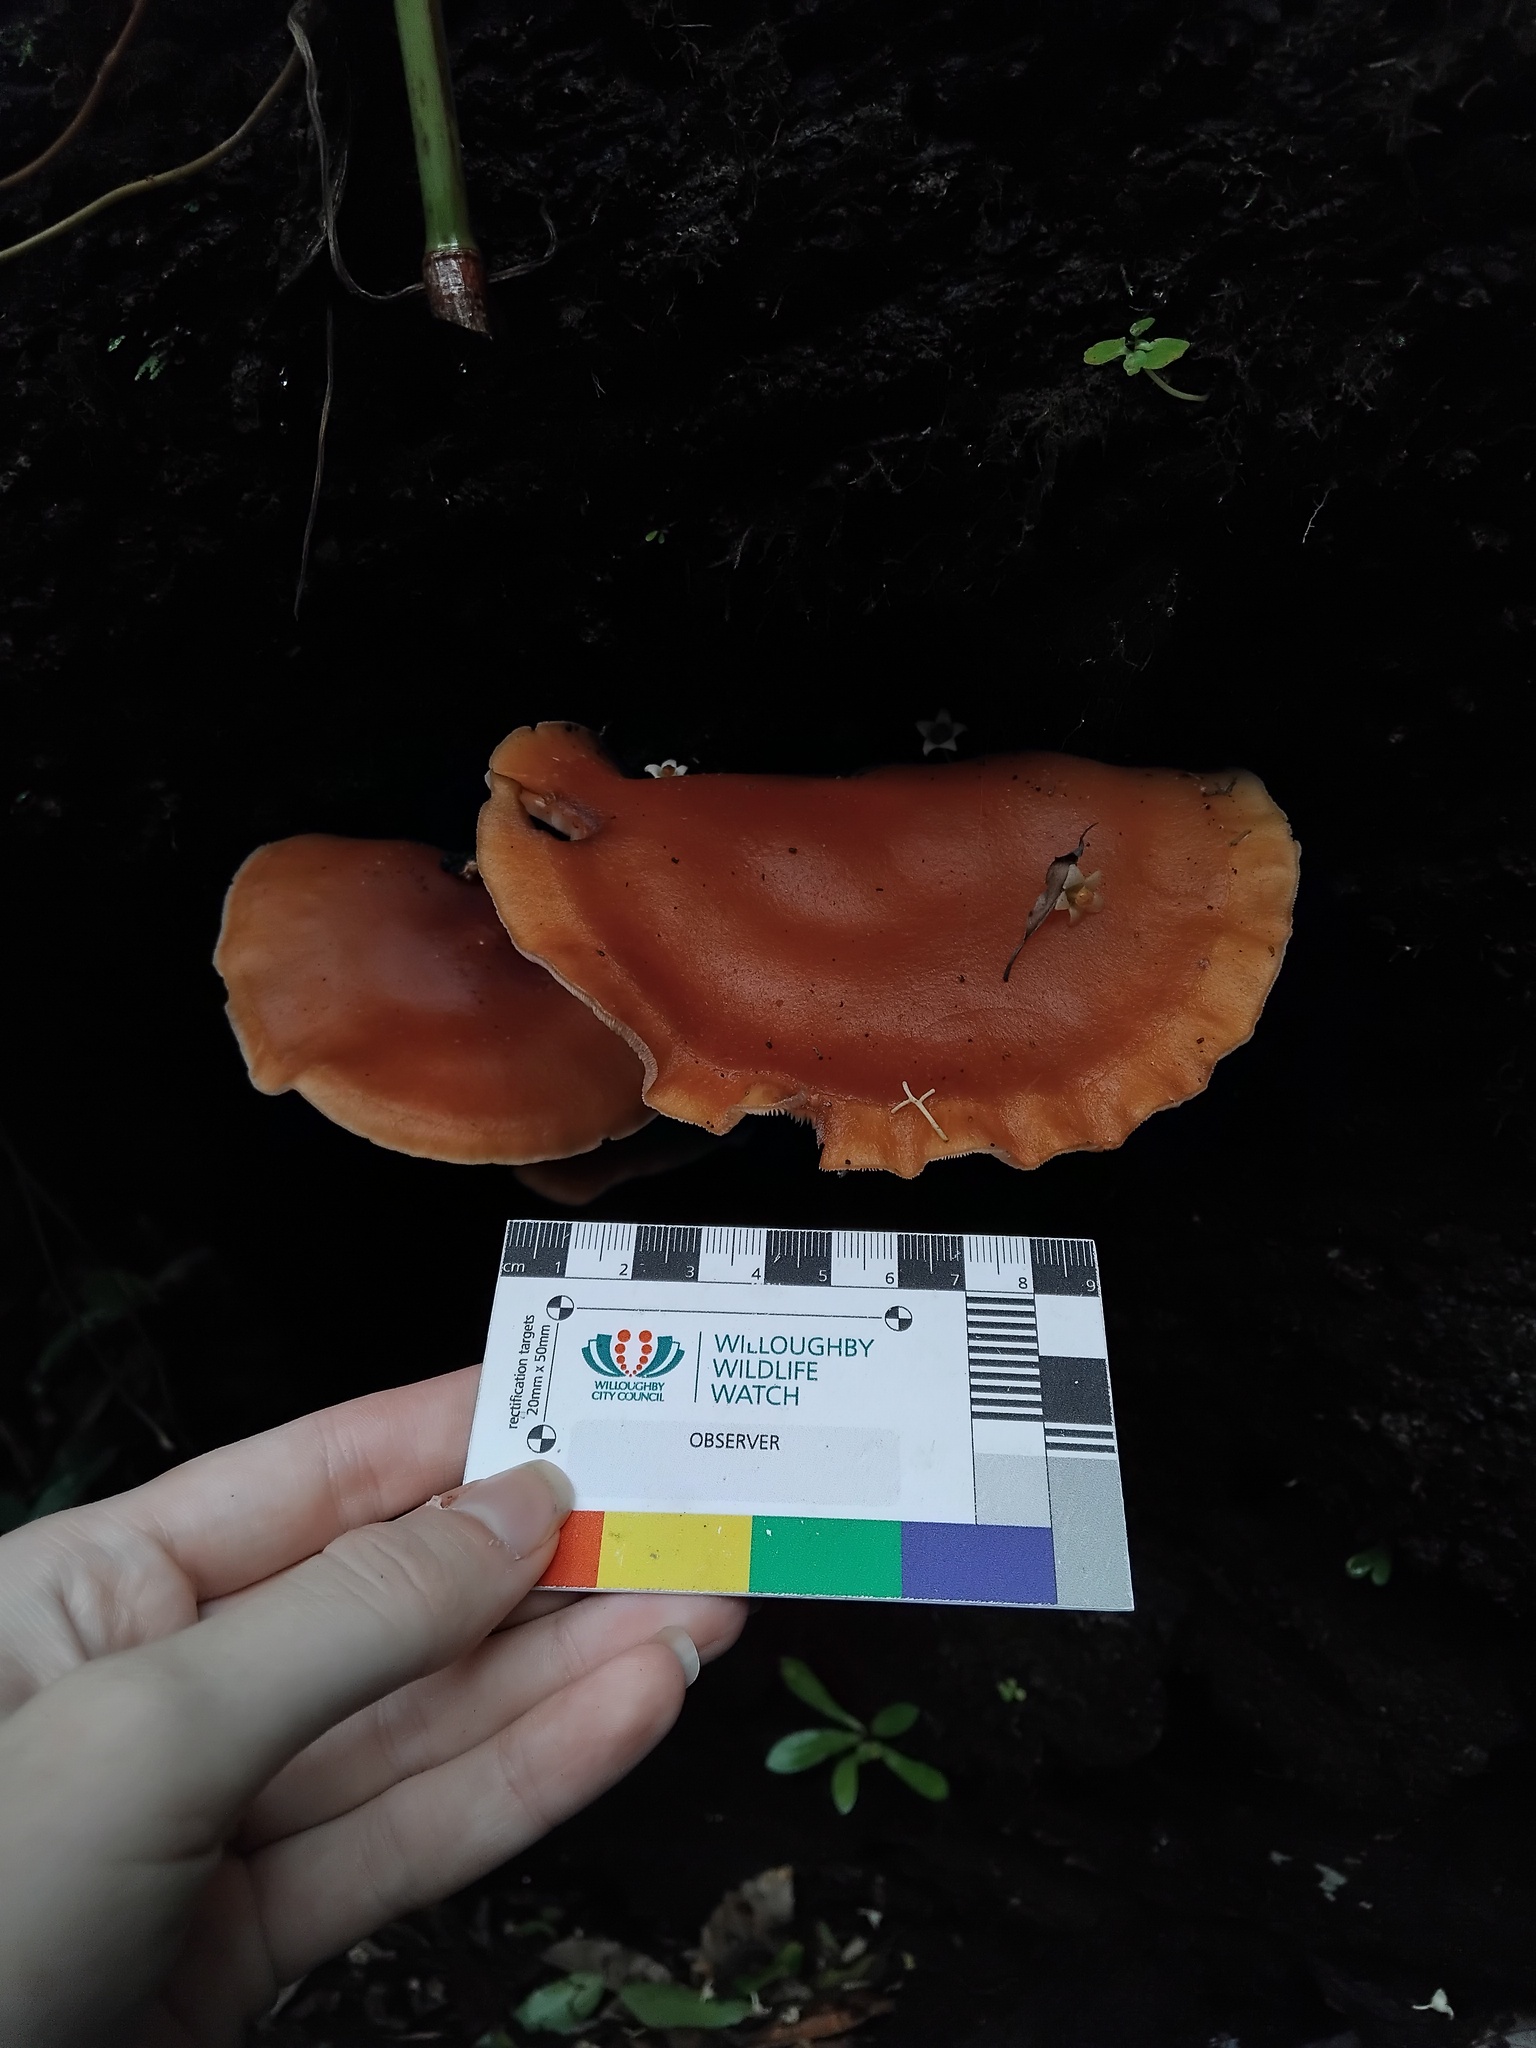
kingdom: Fungi
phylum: Basidiomycota
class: Agaricomycetes
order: Agaricales
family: Omphalotaceae
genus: Lentinula
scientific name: Lentinula lateritia
